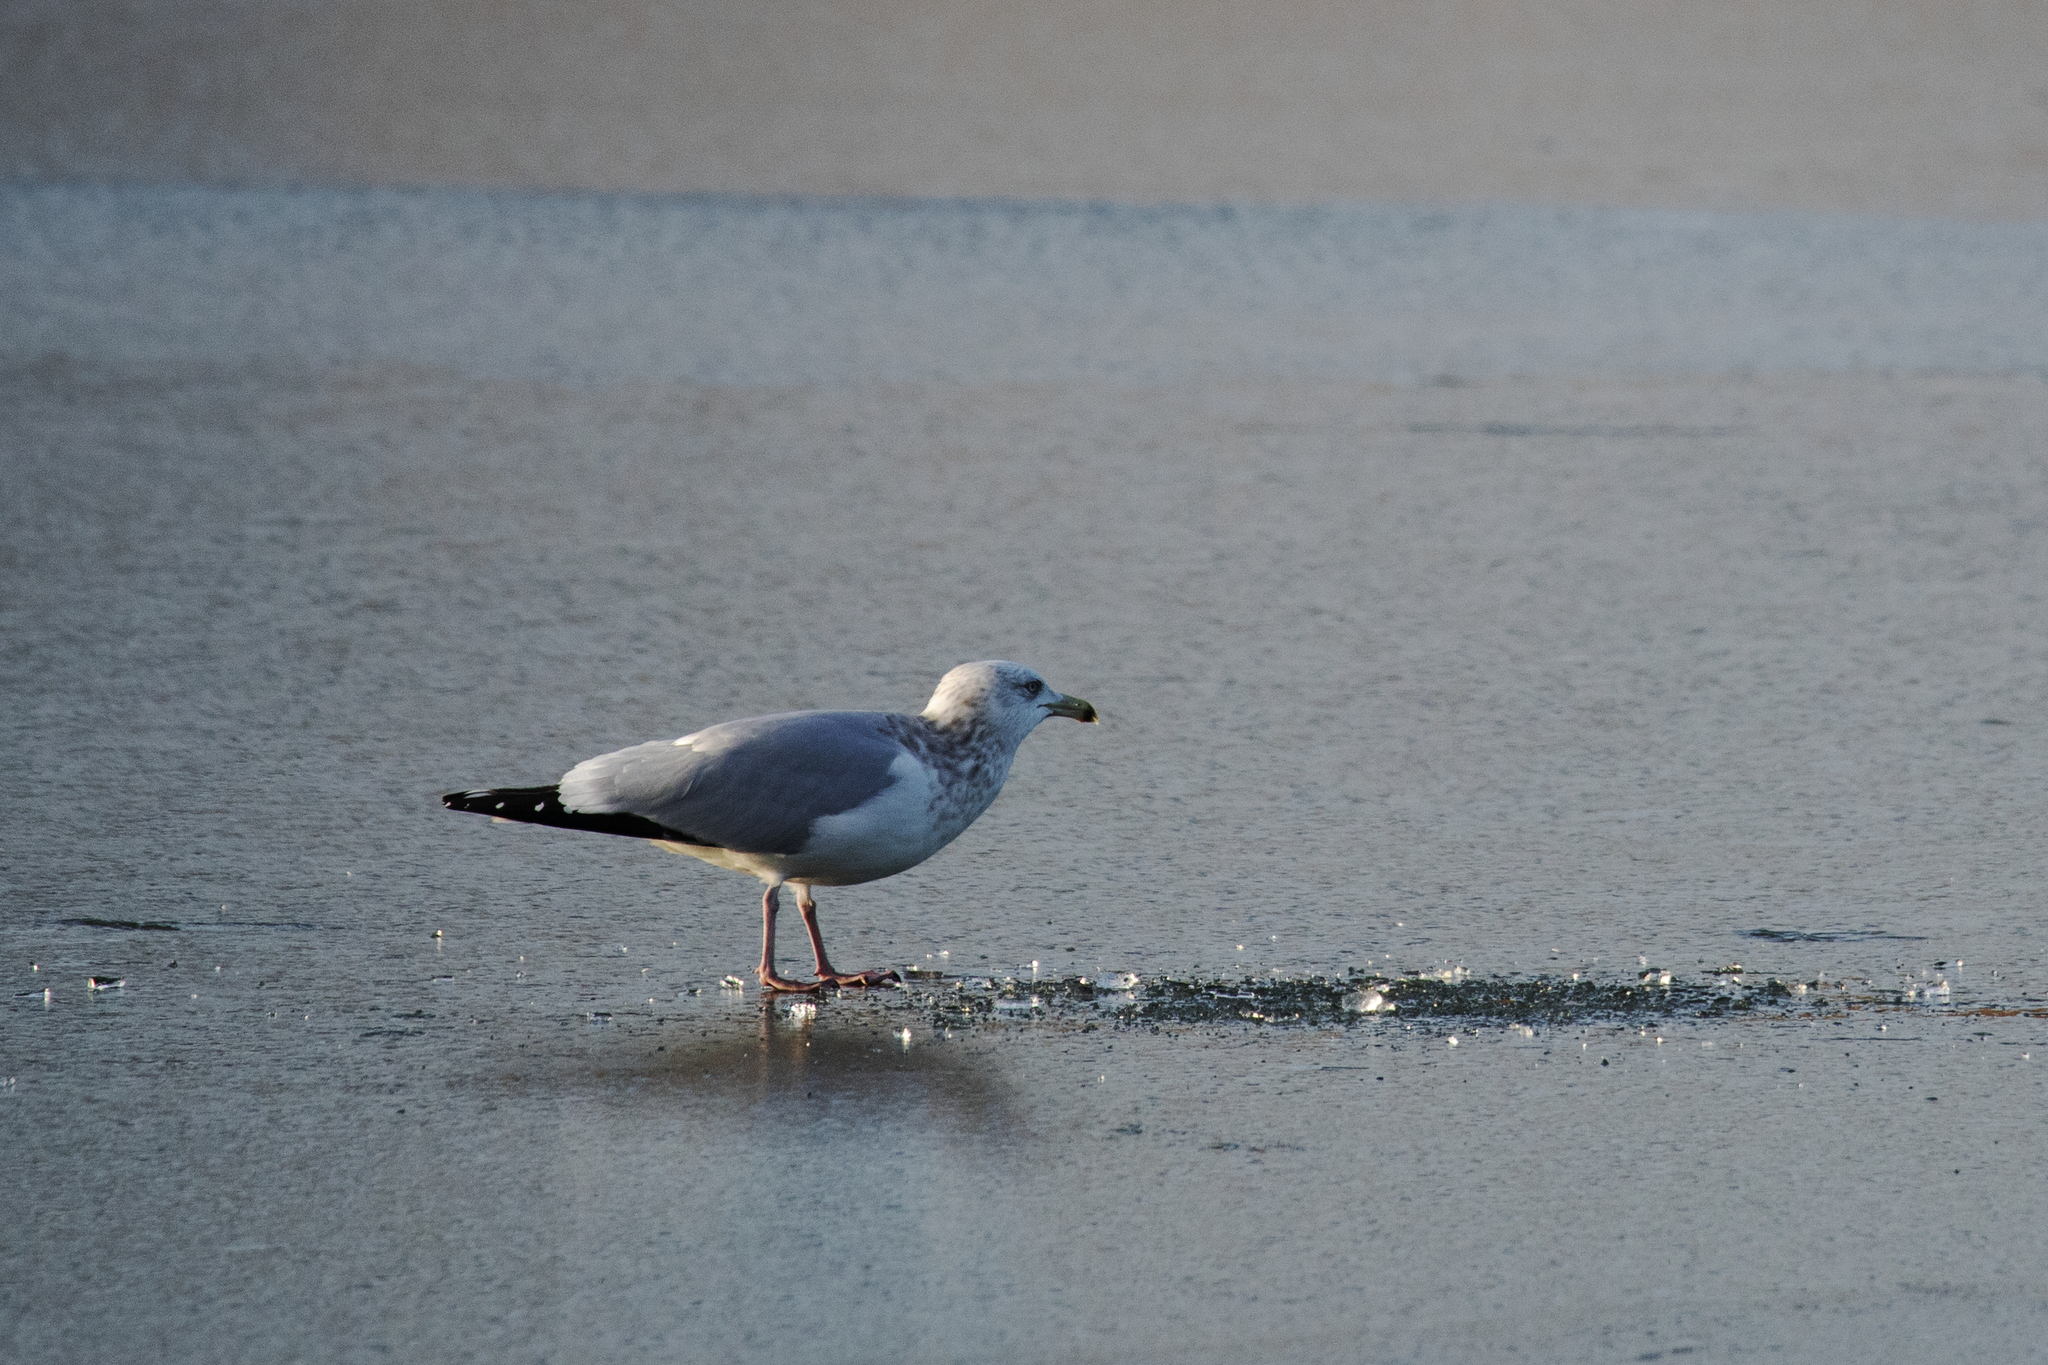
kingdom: Animalia
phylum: Chordata
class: Aves
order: Charadriiformes
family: Laridae
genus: Larus
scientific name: Larus smithsonianus
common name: American herring gull
